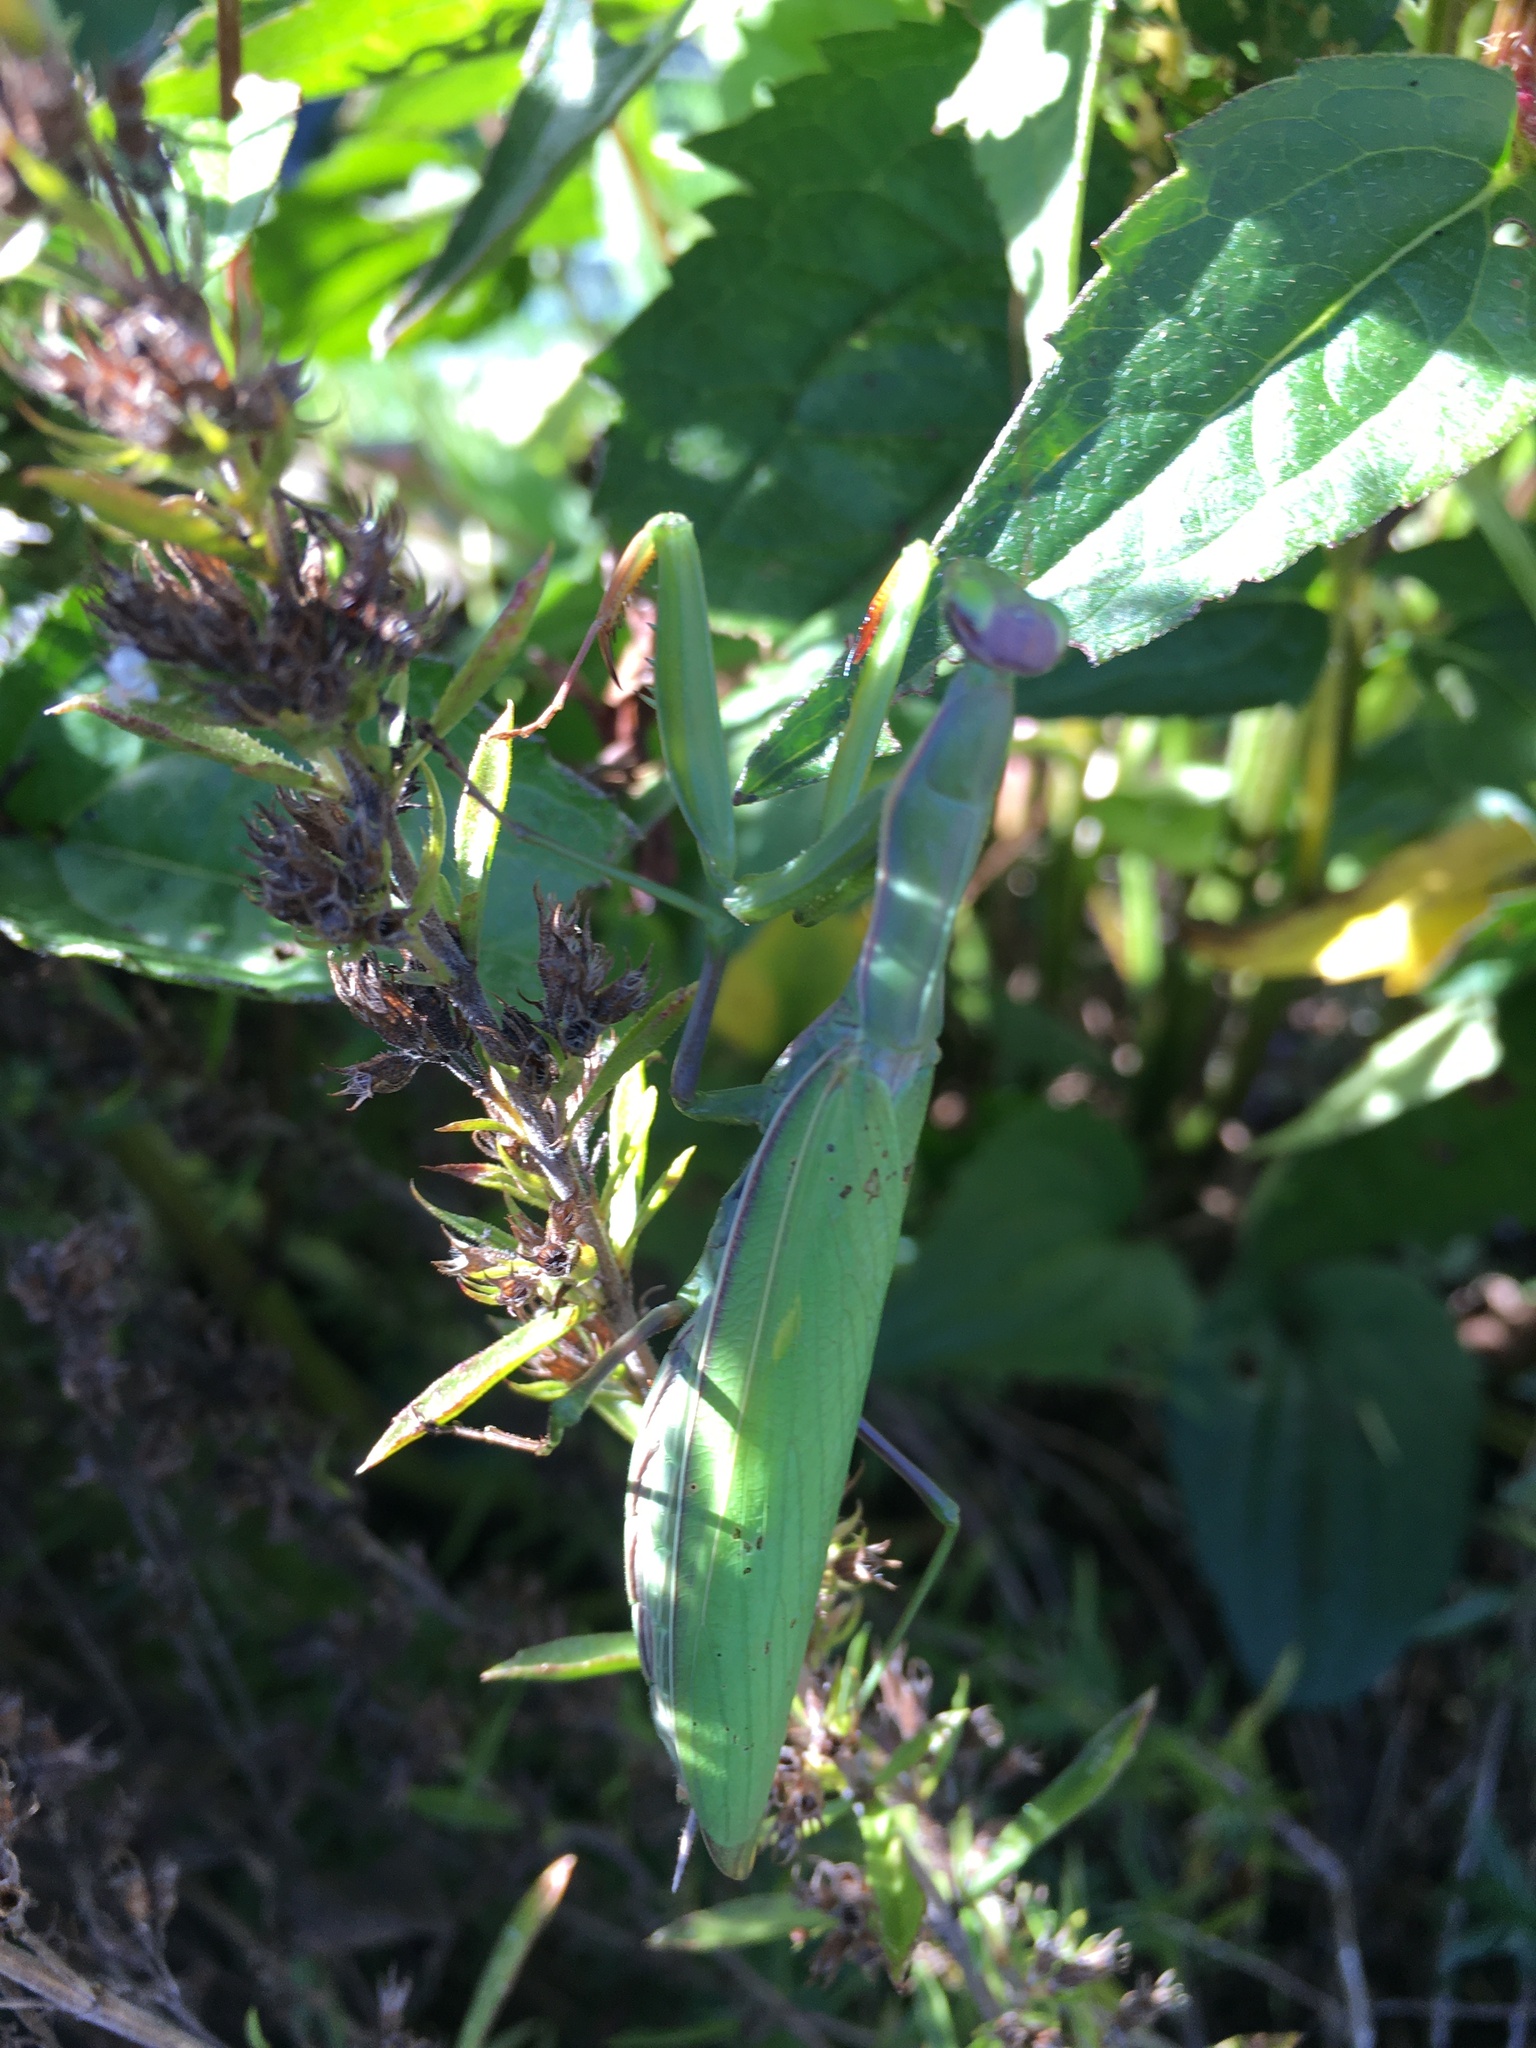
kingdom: Animalia
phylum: Arthropoda
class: Insecta
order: Mantodea
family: Mantidae
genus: Mantis
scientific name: Mantis religiosa
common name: Praying mantis
